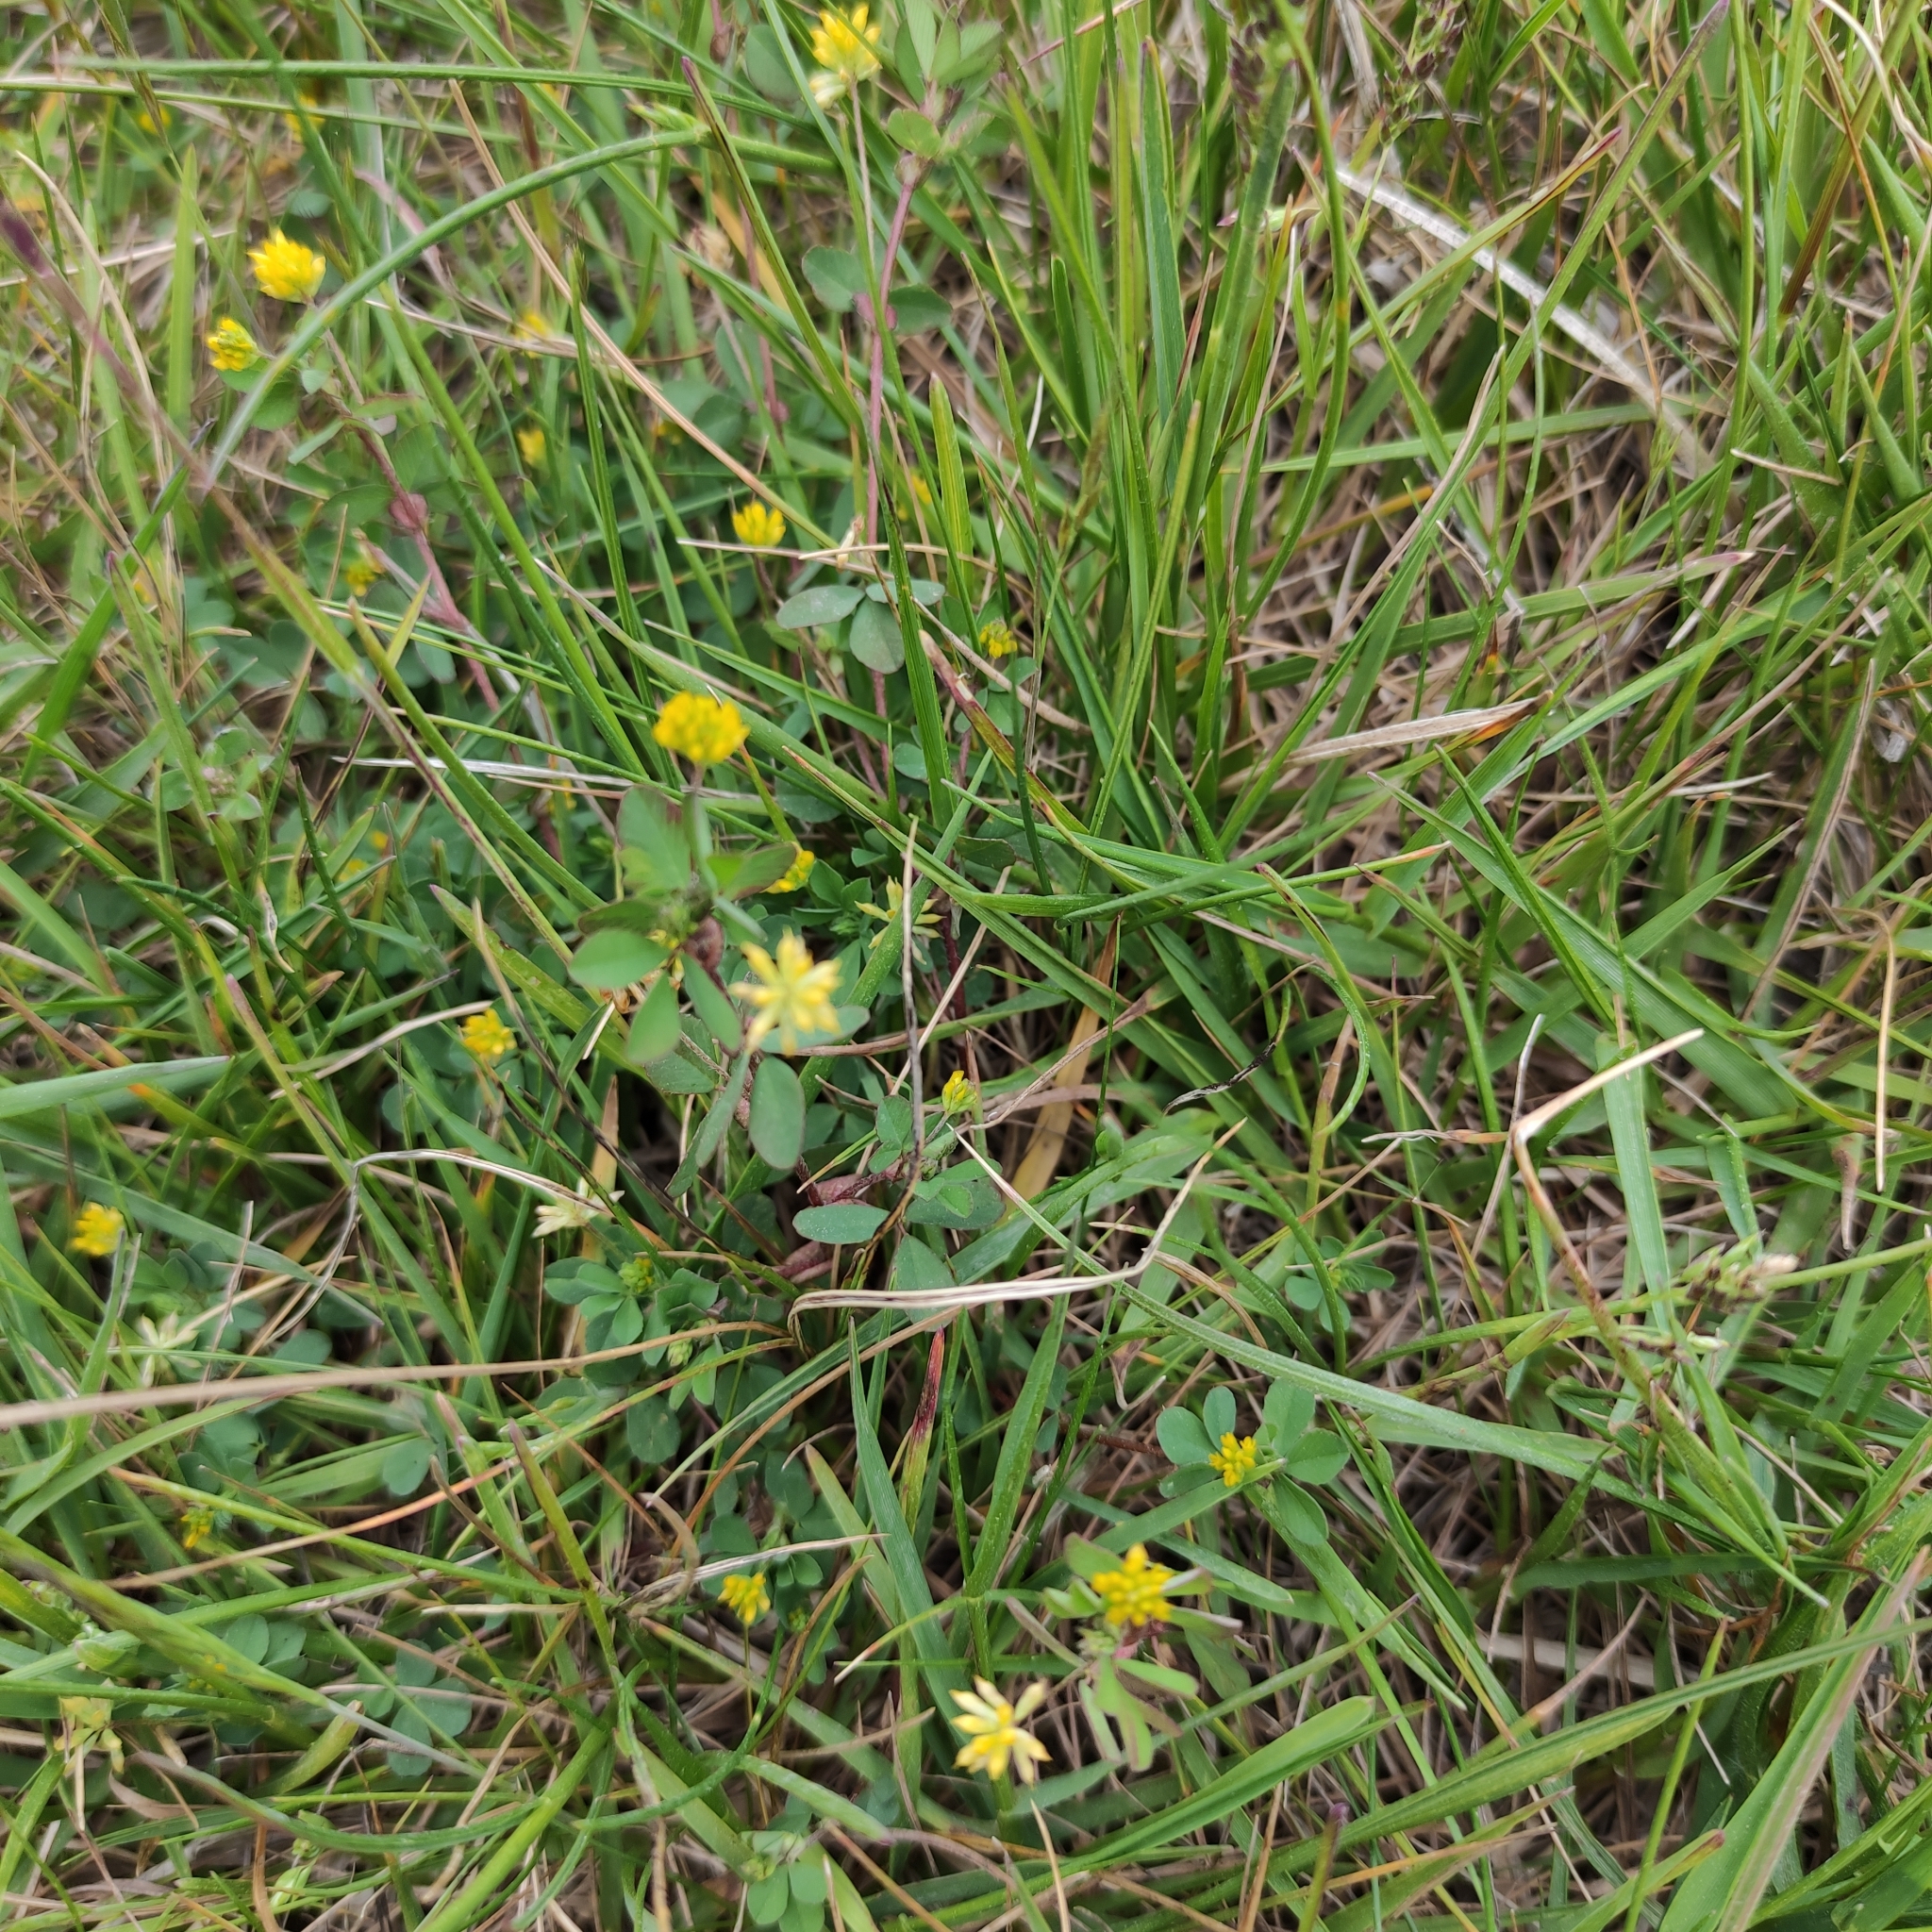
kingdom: Plantae
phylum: Tracheophyta
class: Magnoliopsida
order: Fabales
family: Fabaceae
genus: Trifolium
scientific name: Trifolium dubium
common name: Suckling clover
